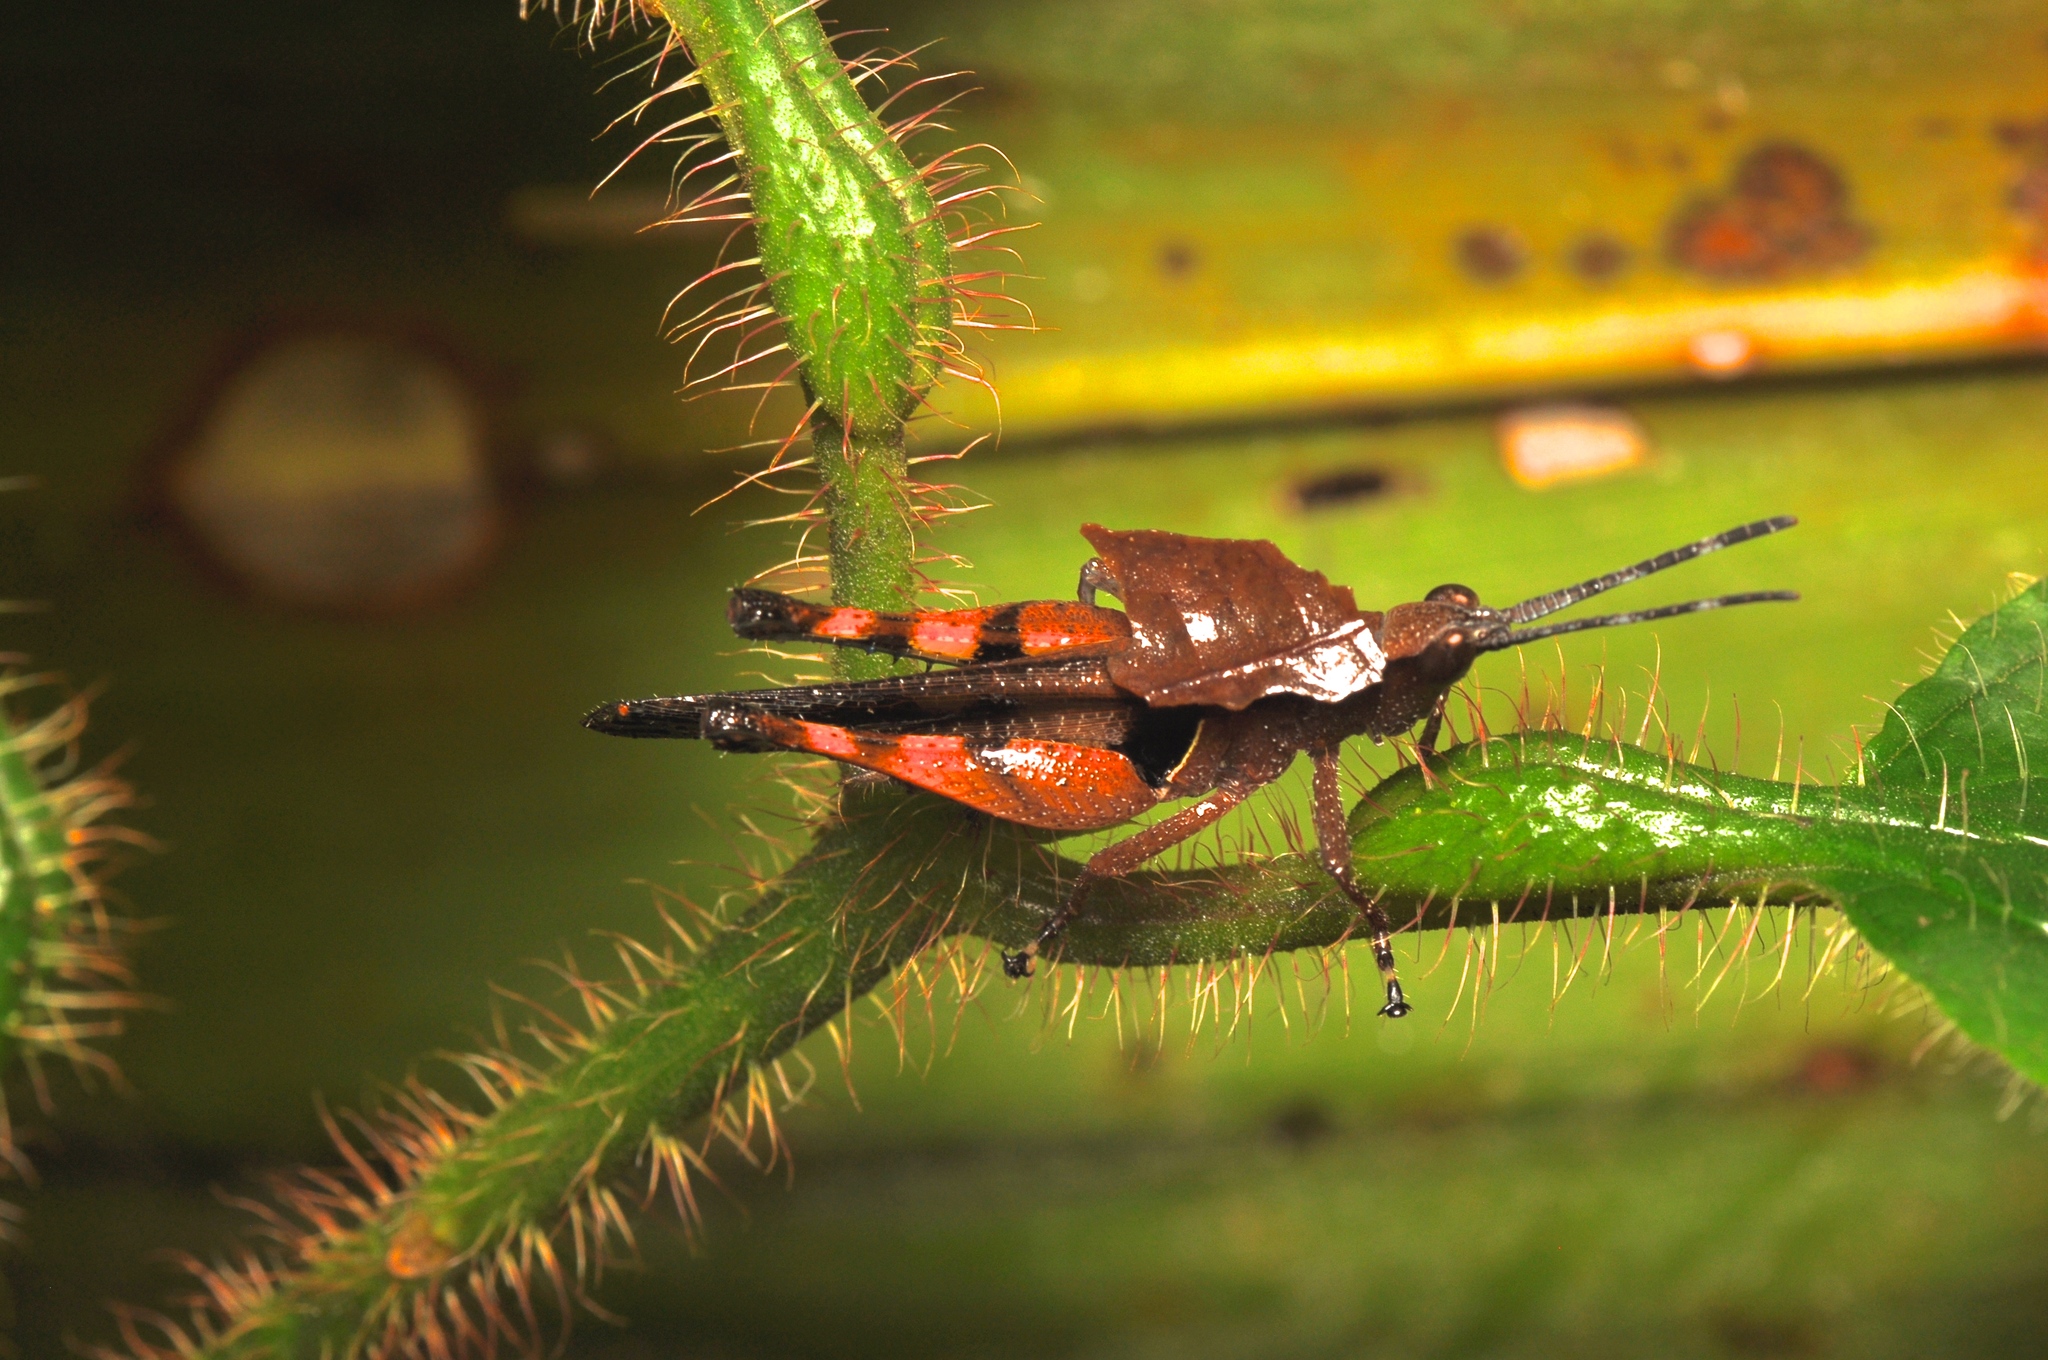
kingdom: Animalia
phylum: Arthropoda
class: Insecta
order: Orthoptera
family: Acrididae
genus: Xiphiola
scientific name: Xiphiola cyanoptera
